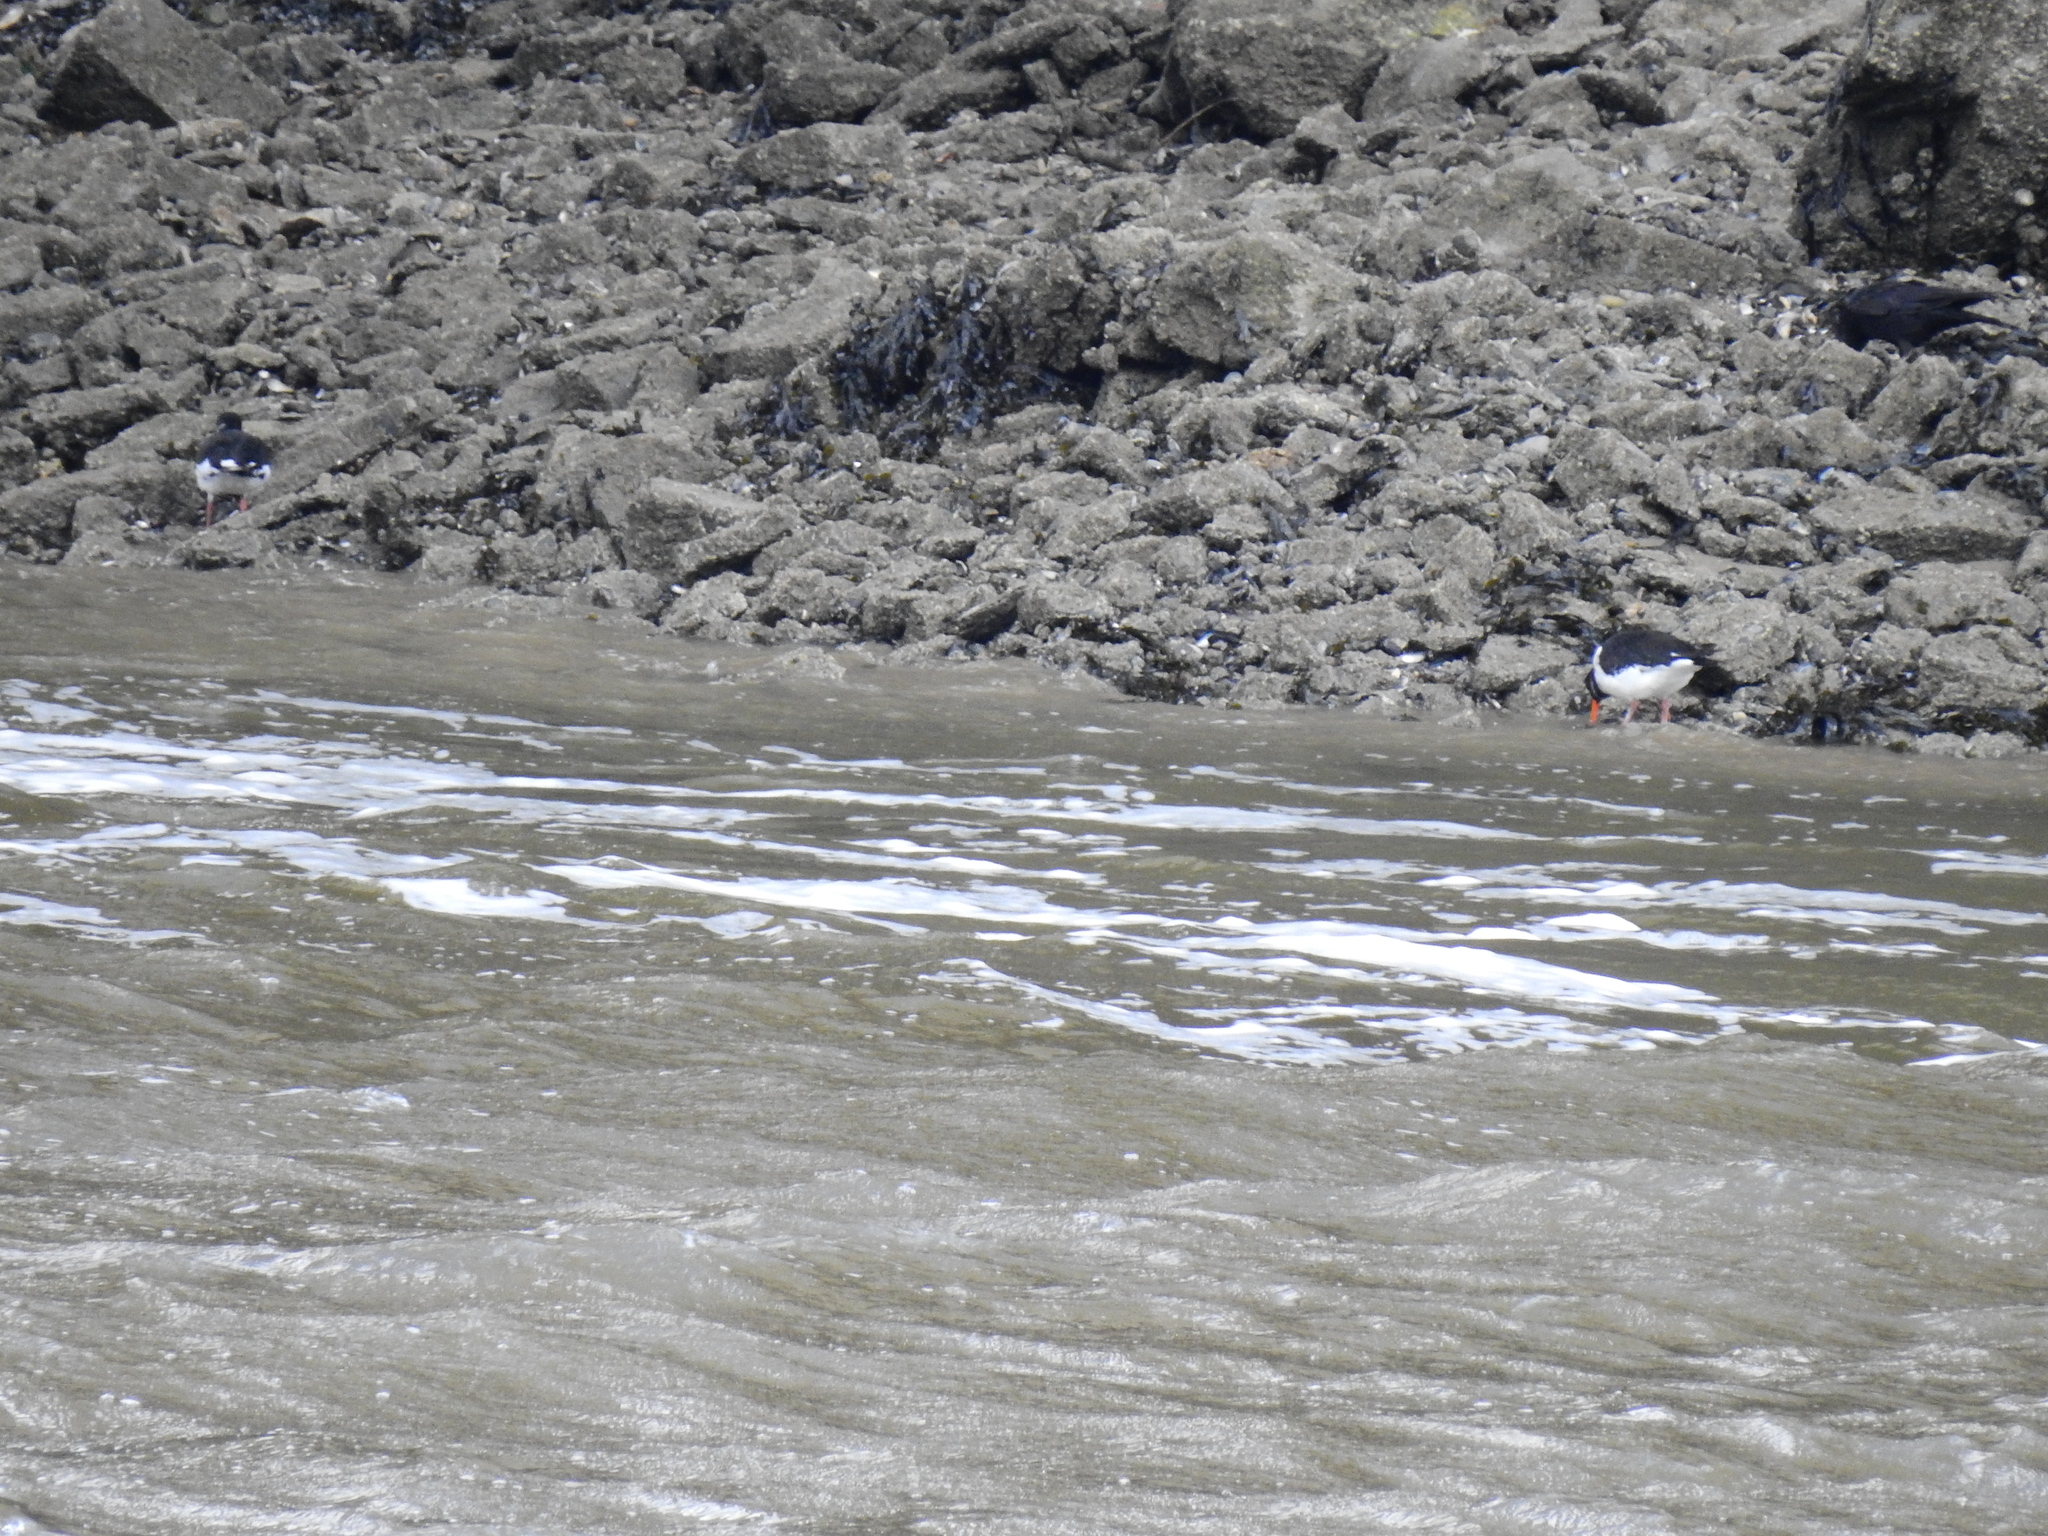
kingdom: Animalia
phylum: Chordata
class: Aves
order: Charadriiformes
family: Haematopodidae
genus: Haematopus
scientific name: Haematopus ostralegus
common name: Eurasian oystercatcher
